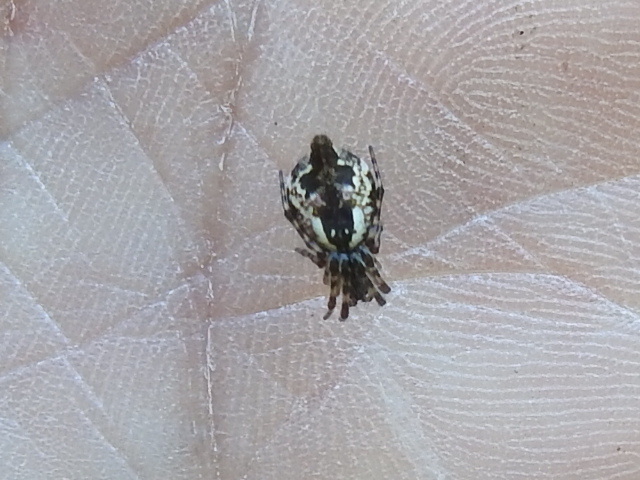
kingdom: Animalia
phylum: Arthropoda
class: Arachnida
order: Araneae
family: Araneidae
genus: Cyclosa
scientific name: Cyclosa conica
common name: Conical trashline orbweaver
